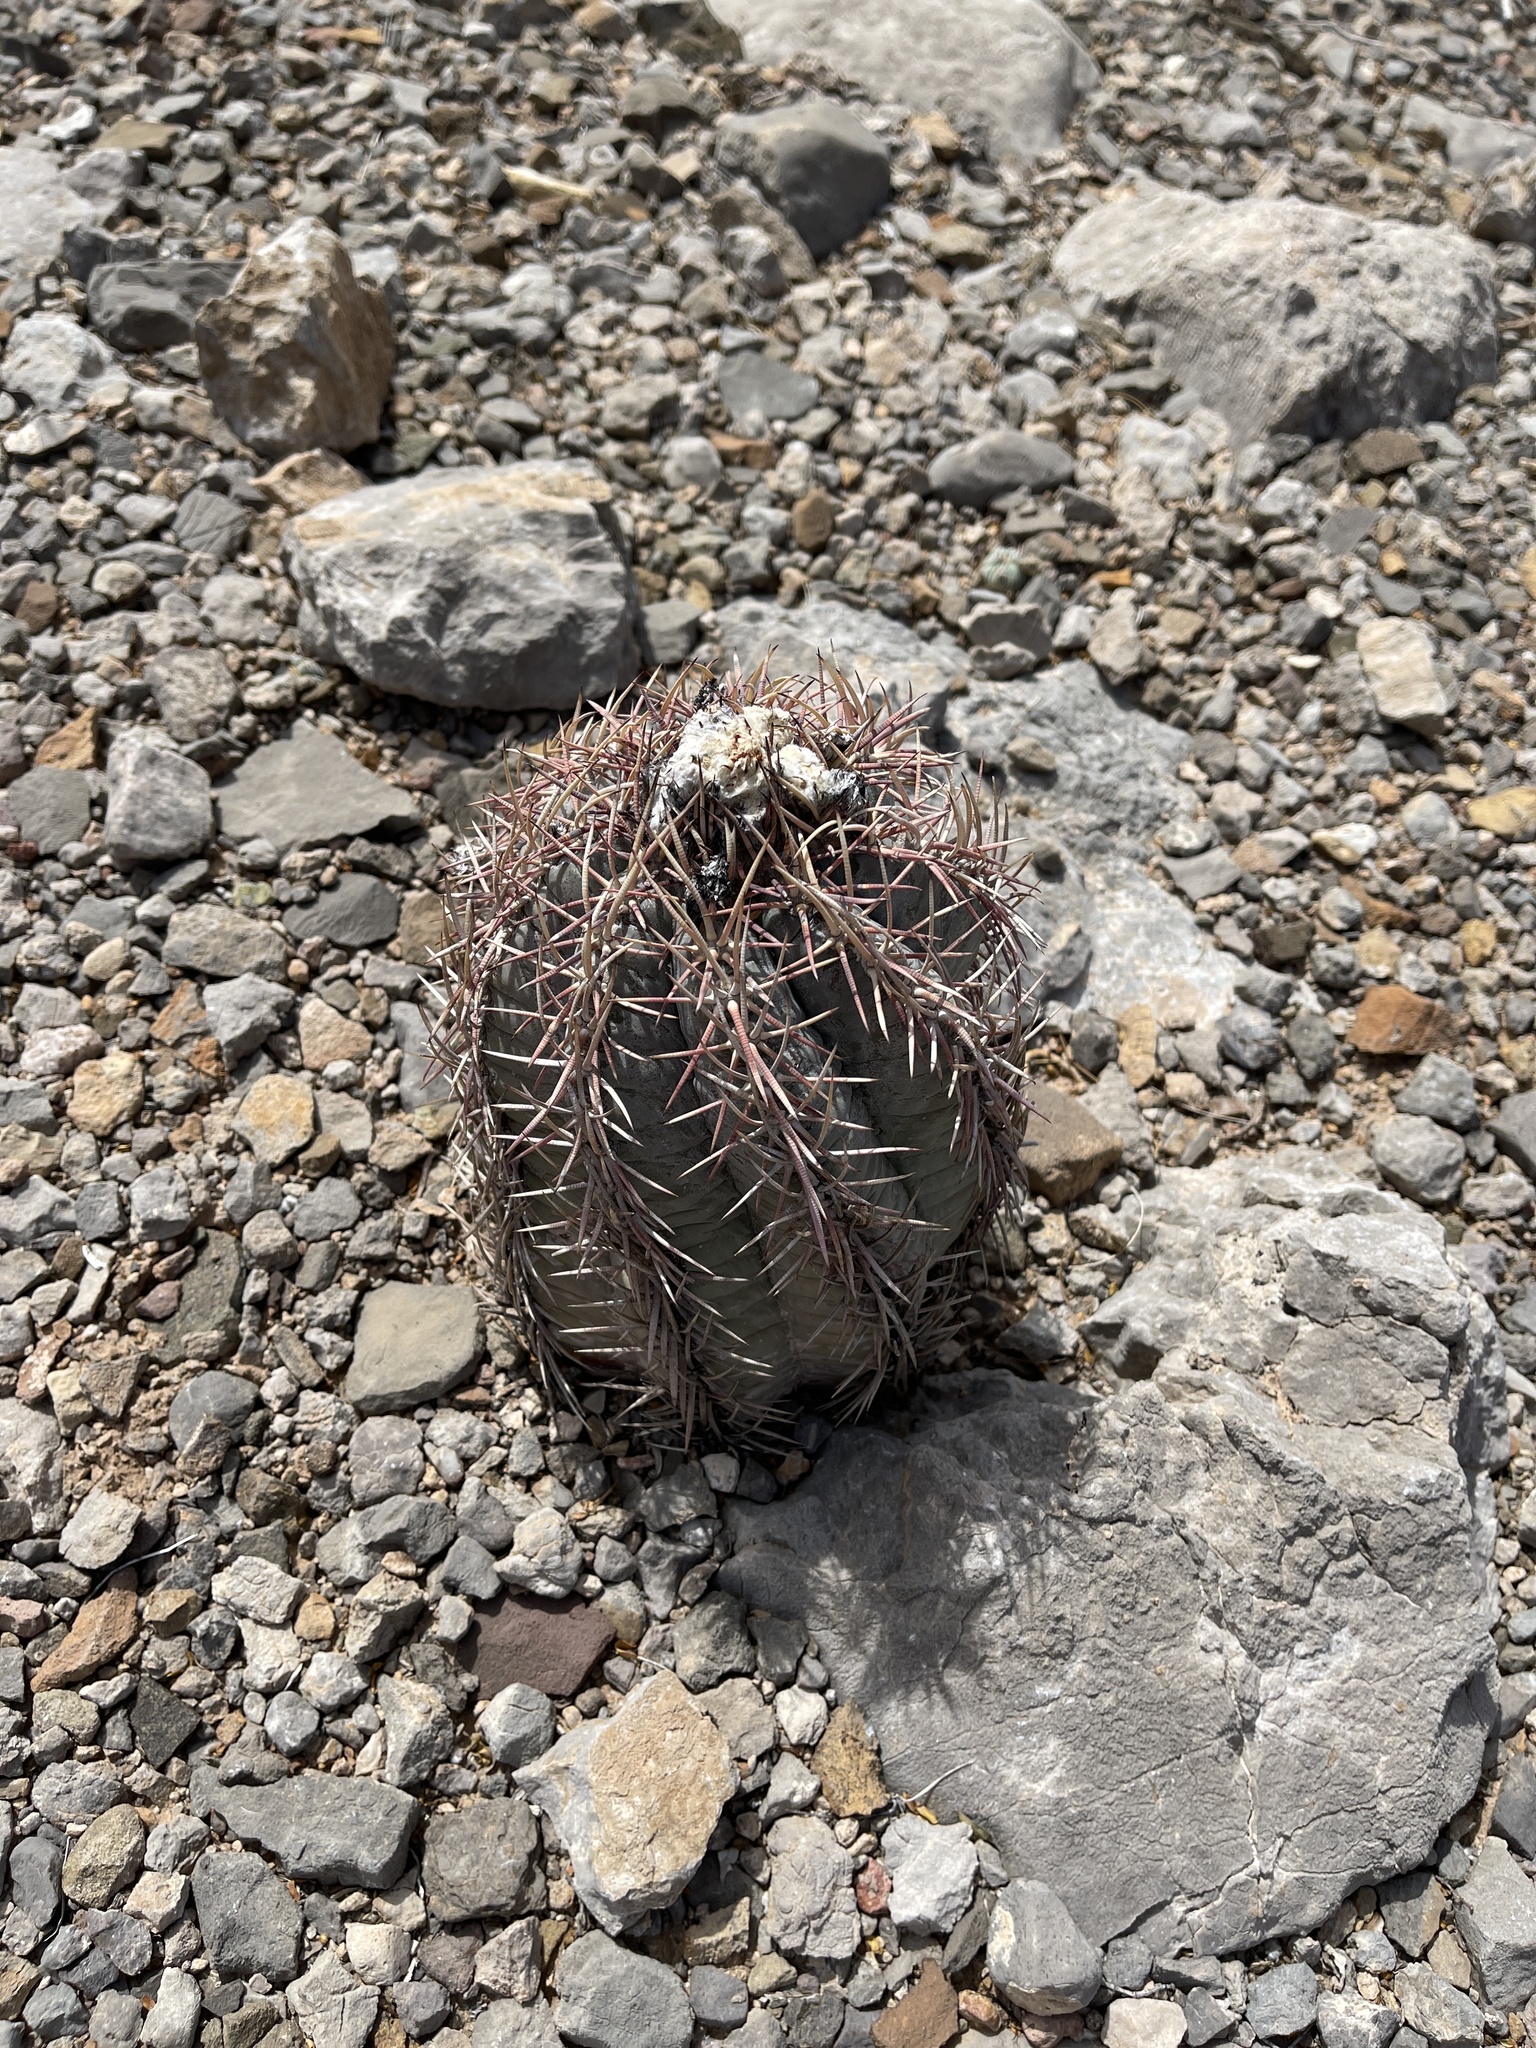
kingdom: Plantae
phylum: Tracheophyta
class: Magnoliopsida
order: Caryophyllales
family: Cactaceae
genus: Echinocactus
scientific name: Echinocactus horizonthalonius
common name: Devilshead
